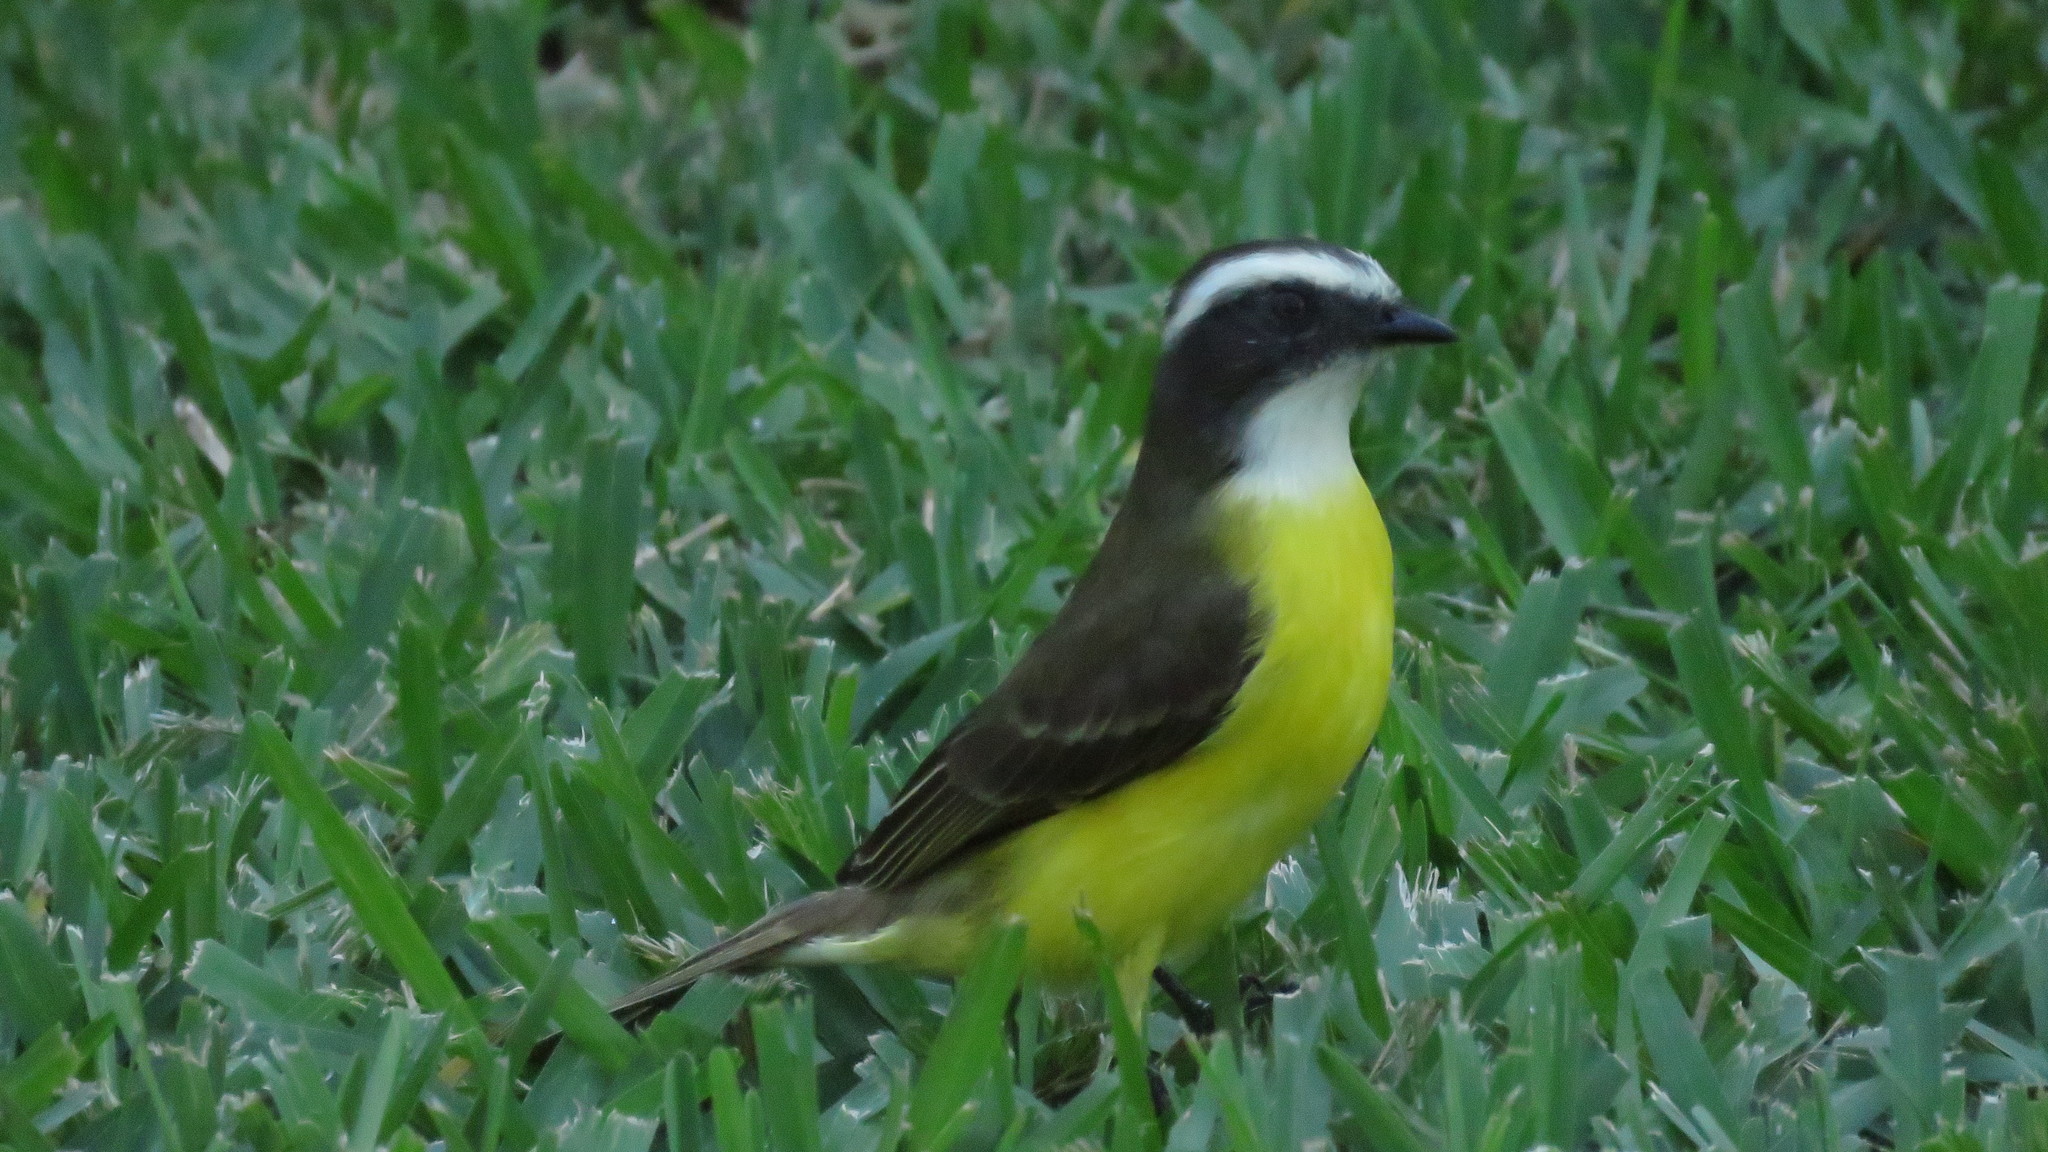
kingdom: Animalia
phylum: Chordata
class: Aves
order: Passeriformes
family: Tyrannidae
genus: Myiozetetes
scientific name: Myiozetetes similis
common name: Social flycatcher
